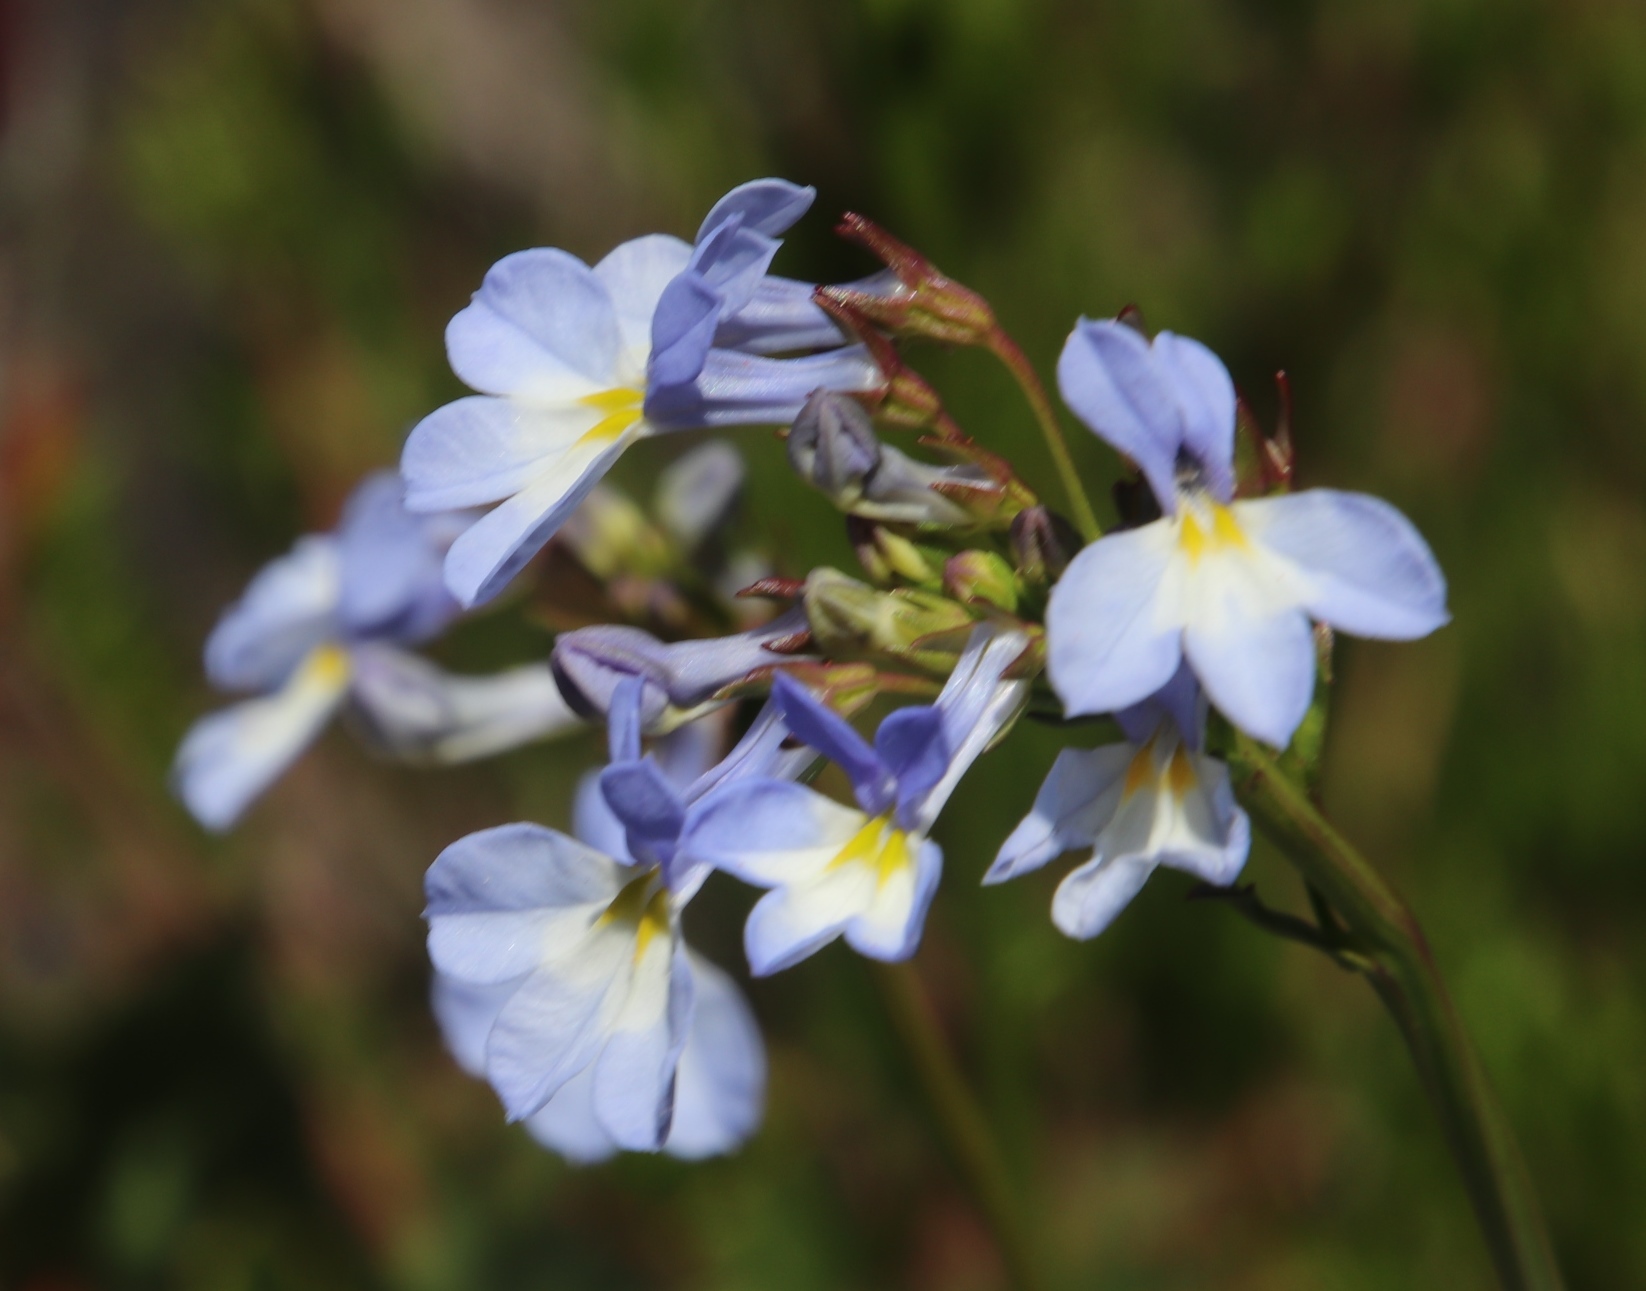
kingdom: Plantae
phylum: Tracheophyta
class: Magnoliopsida
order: Asterales
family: Campanulaceae
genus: Lobelia
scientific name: Lobelia comosa
